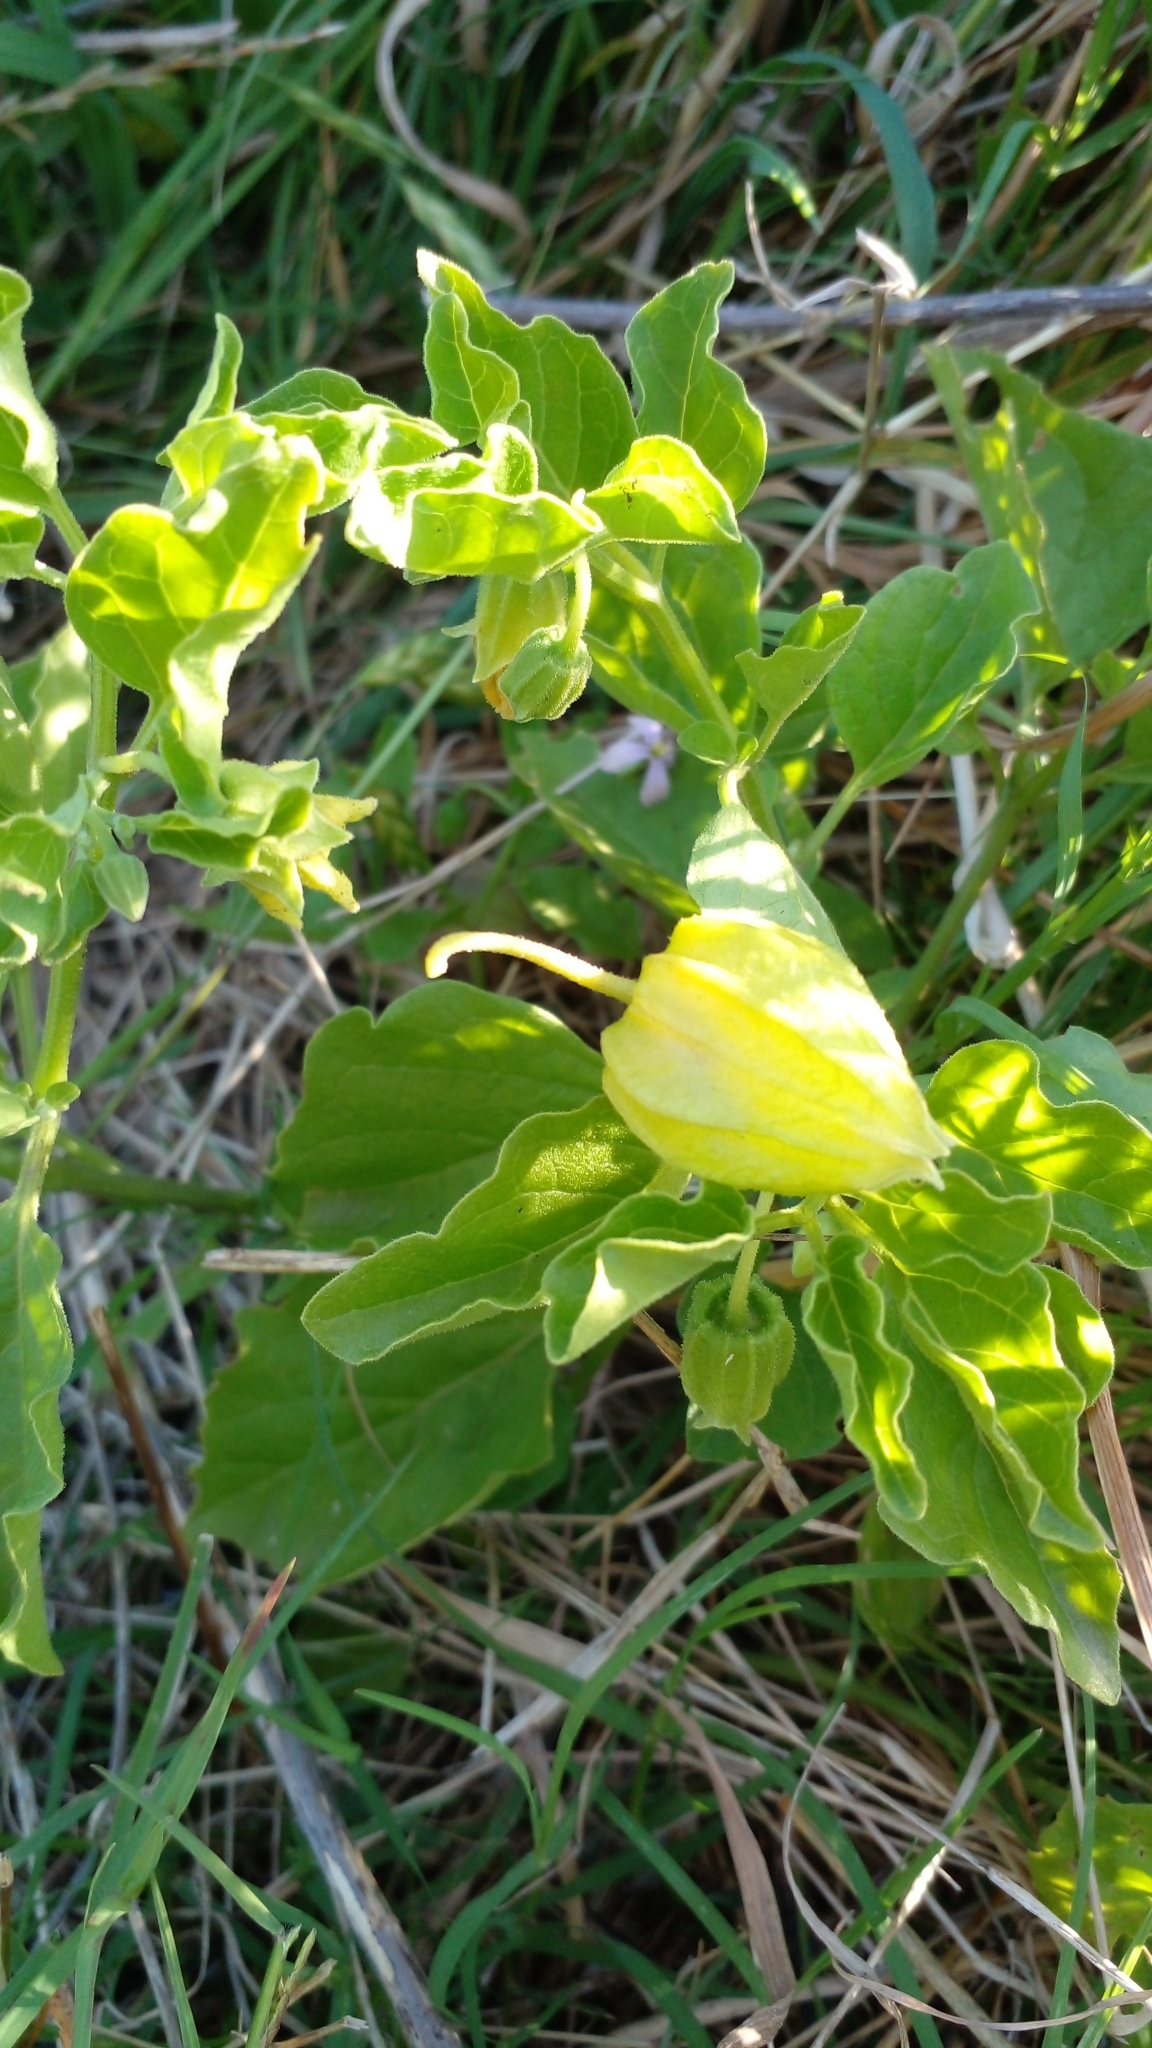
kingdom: Plantae
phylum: Tracheophyta
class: Magnoliopsida
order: Solanales
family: Solanaceae
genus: Physalis
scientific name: Physalis viscosa
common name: Stellate ground-cherry
